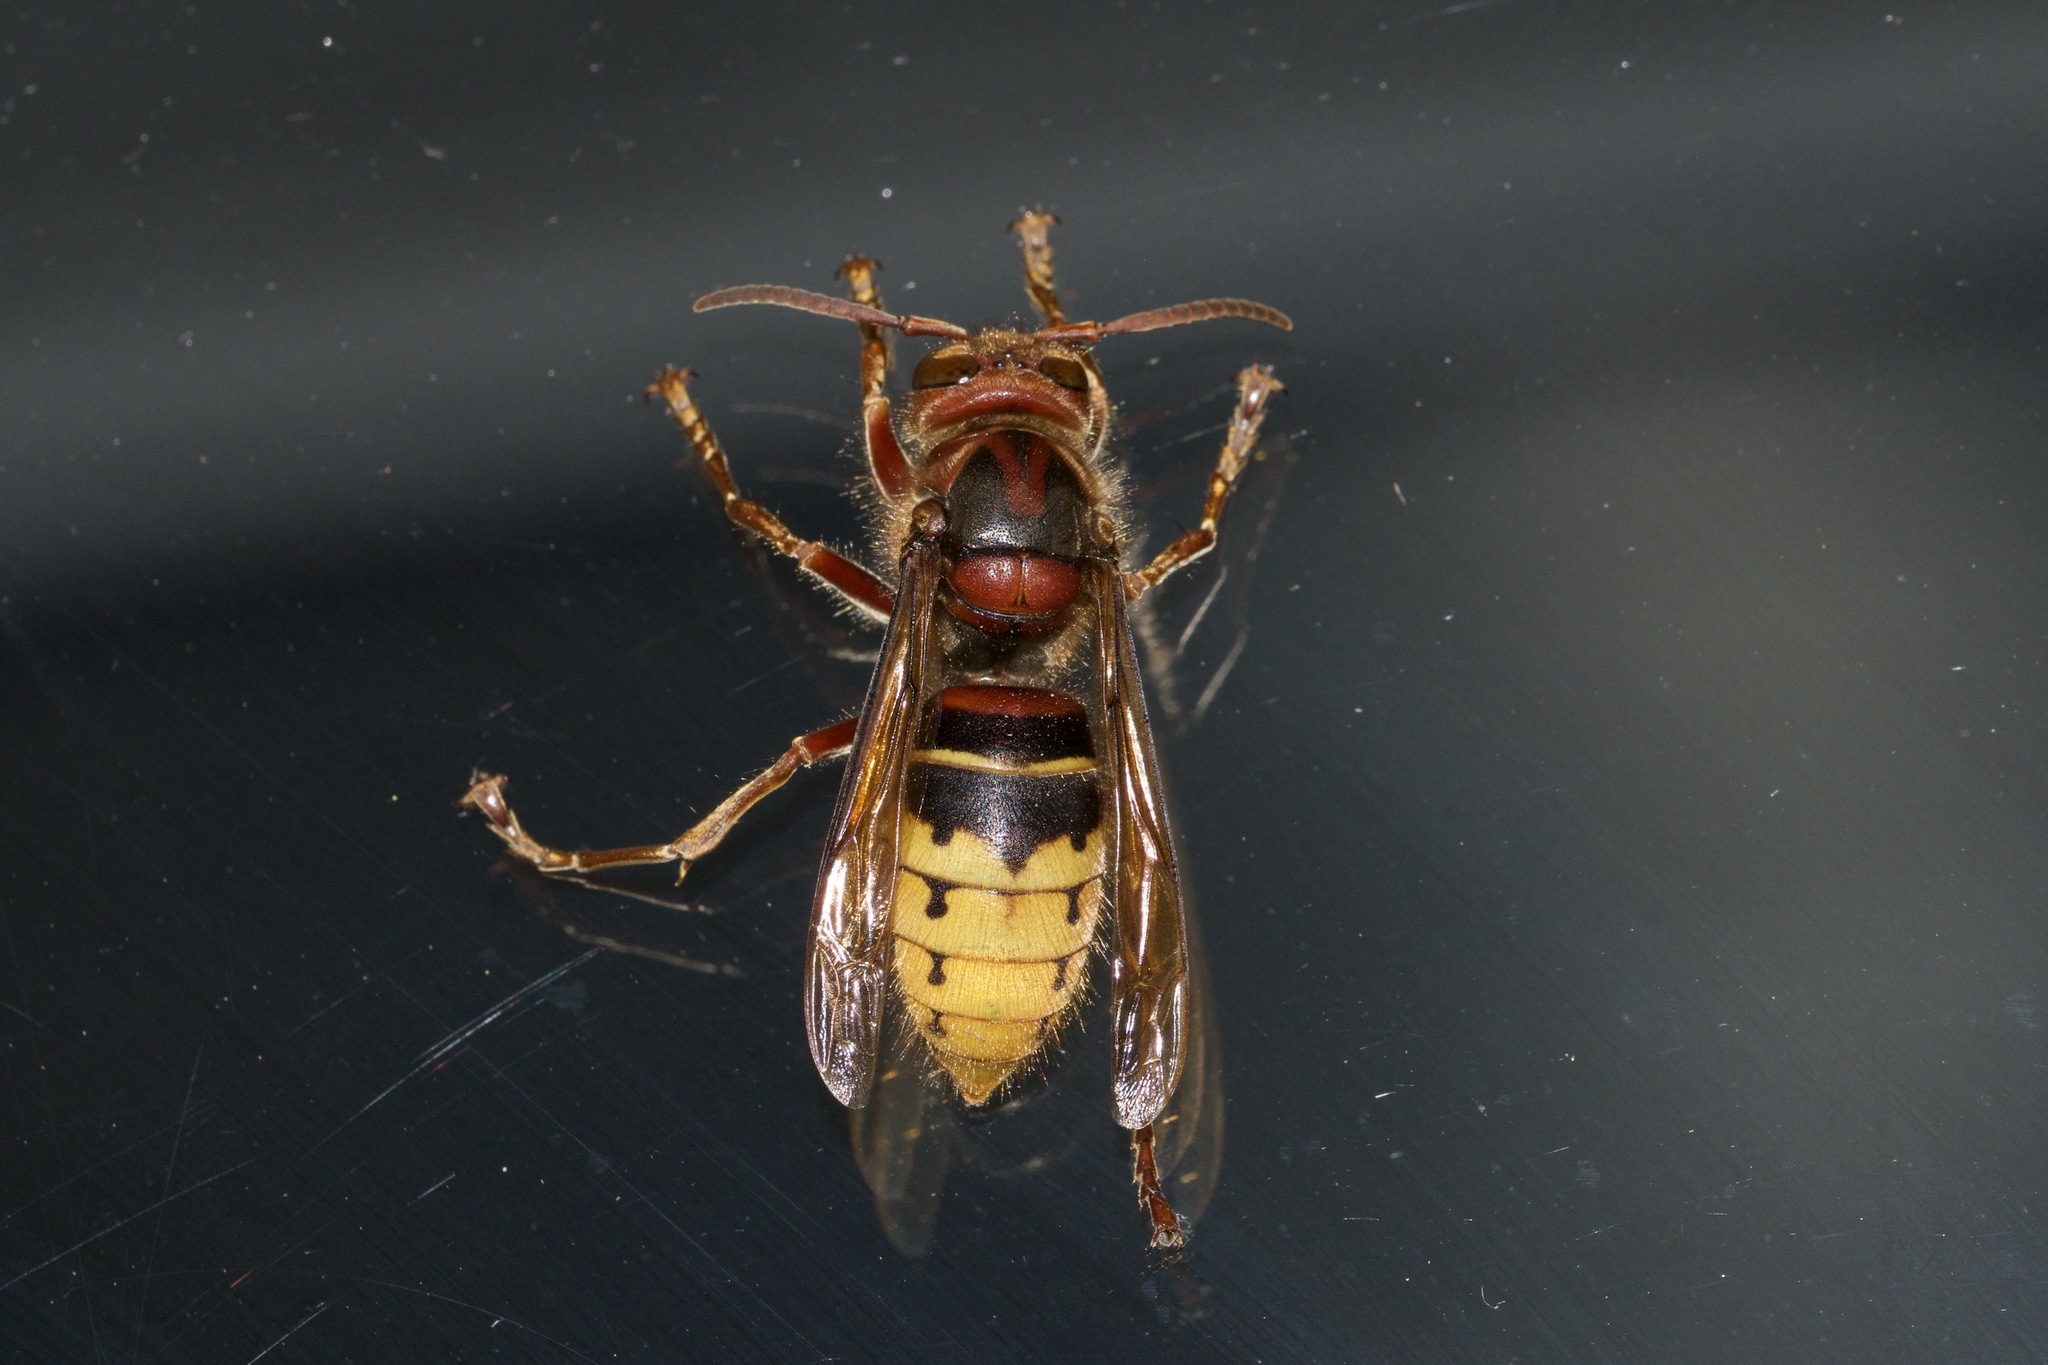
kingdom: Animalia
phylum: Arthropoda
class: Insecta
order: Hymenoptera
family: Vespidae
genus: Vespa
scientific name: Vespa crabro
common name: Hornet
